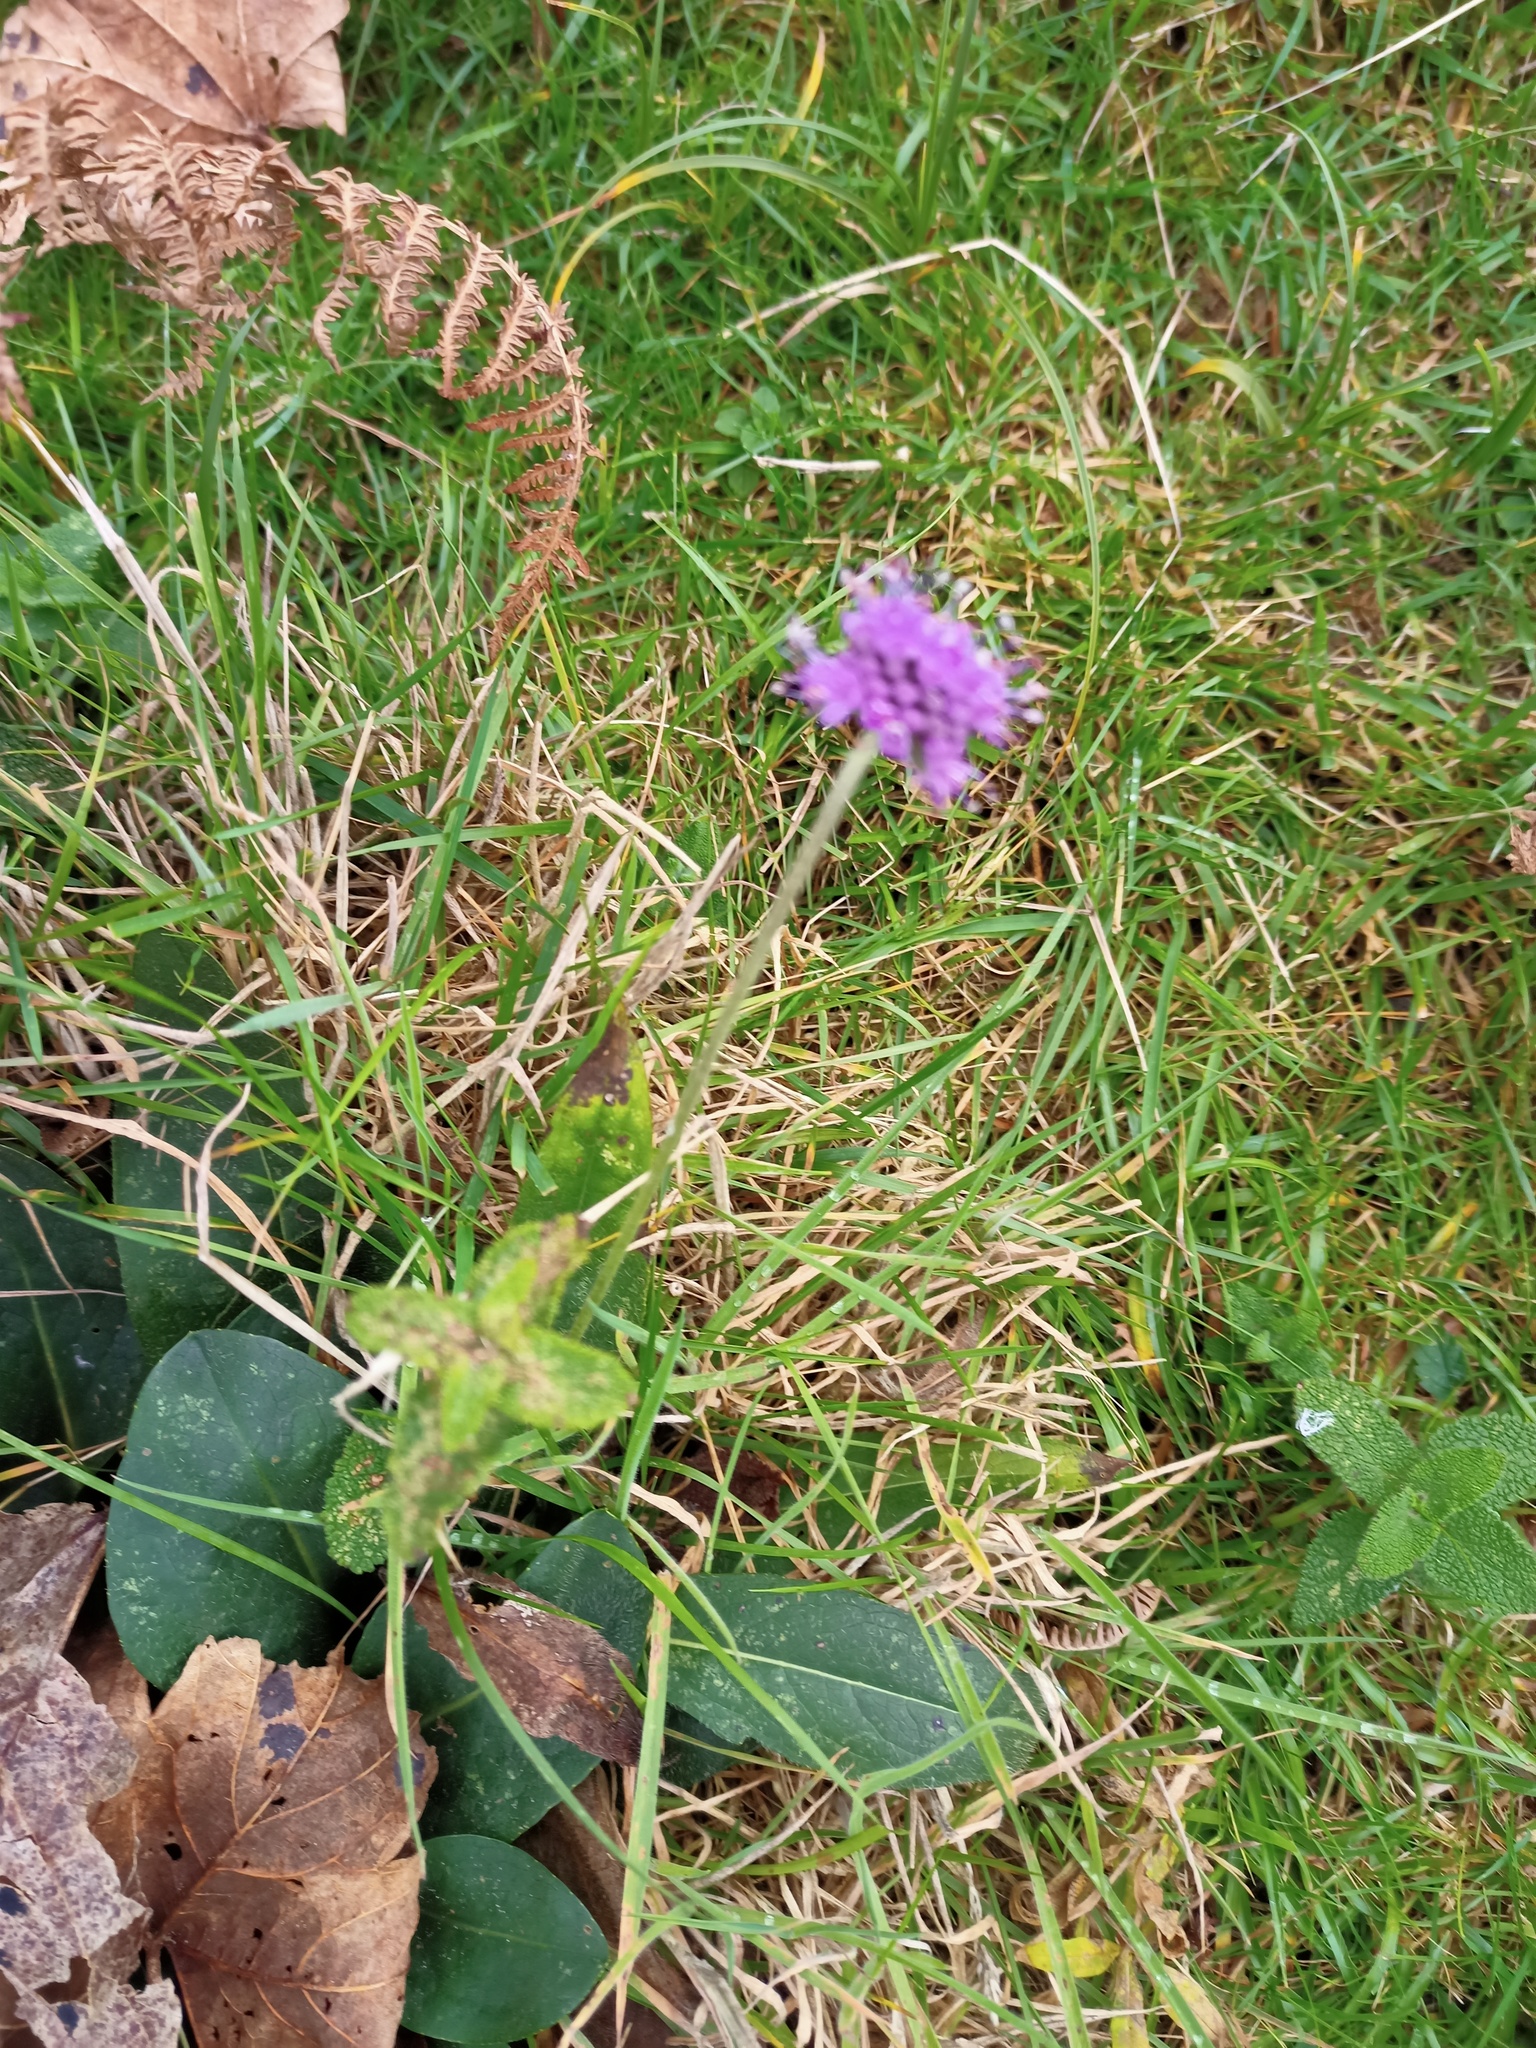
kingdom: Plantae
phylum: Tracheophyta
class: Magnoliopsida
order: Dipsacales
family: Caprifoliaceae
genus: Succisa
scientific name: Succisa pratensis
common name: Devil's-bit
